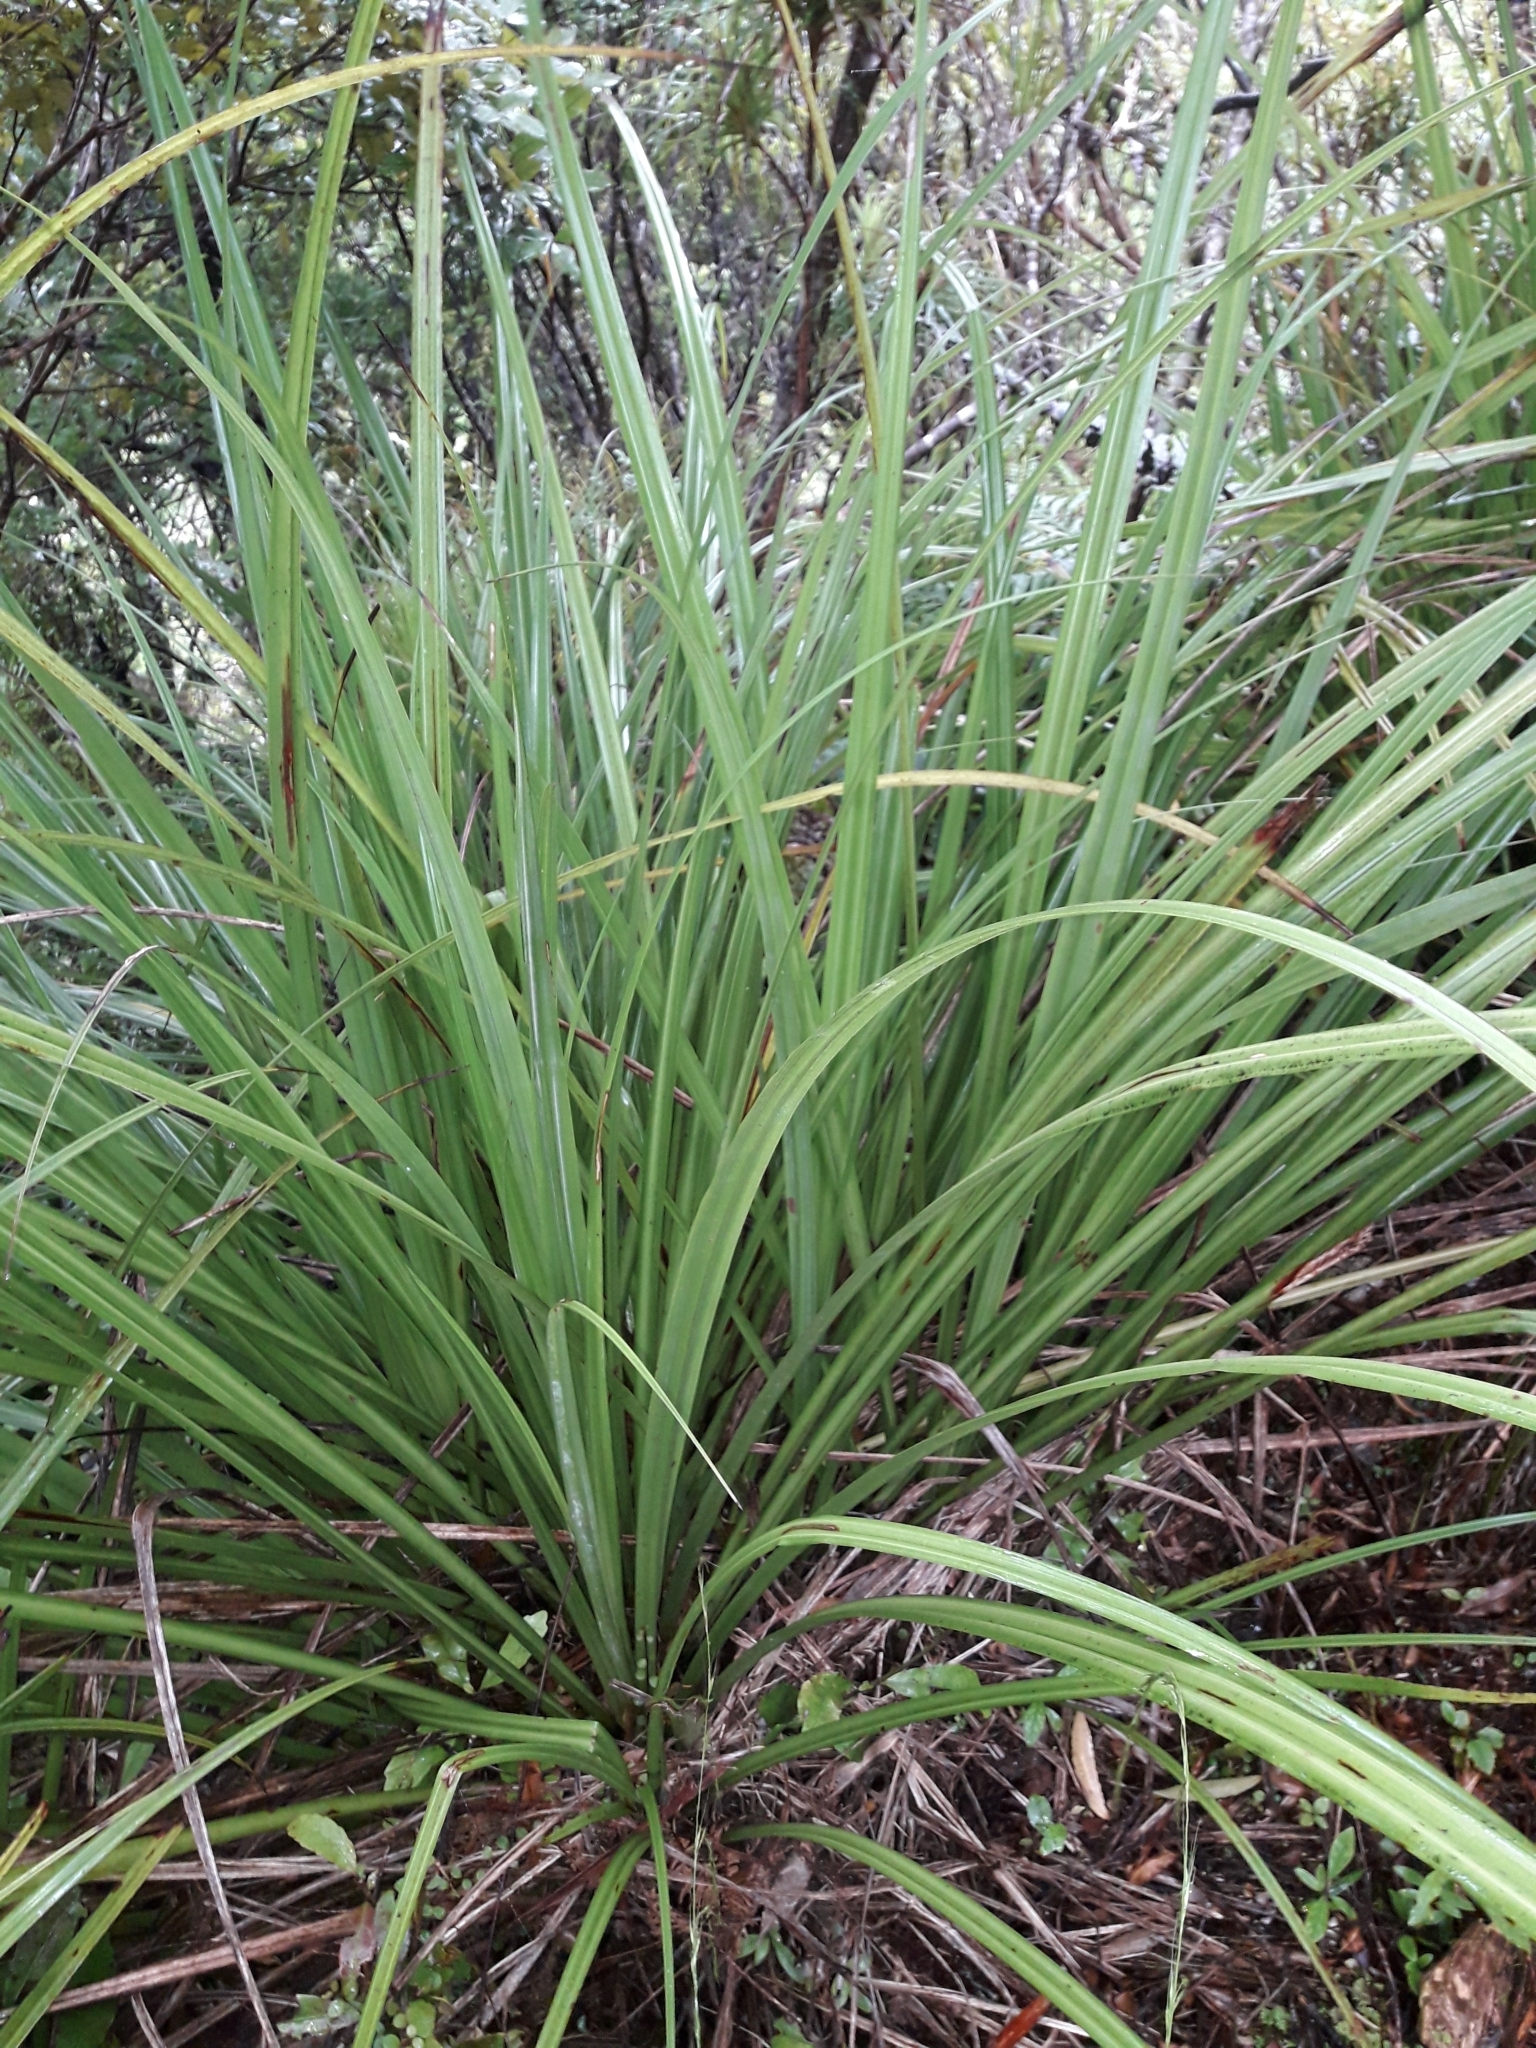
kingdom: Plantae
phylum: Tracheophyta
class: Liliopsida
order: Asparagales
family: Asteliaceae
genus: Astelia
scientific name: Astelia trinervia
